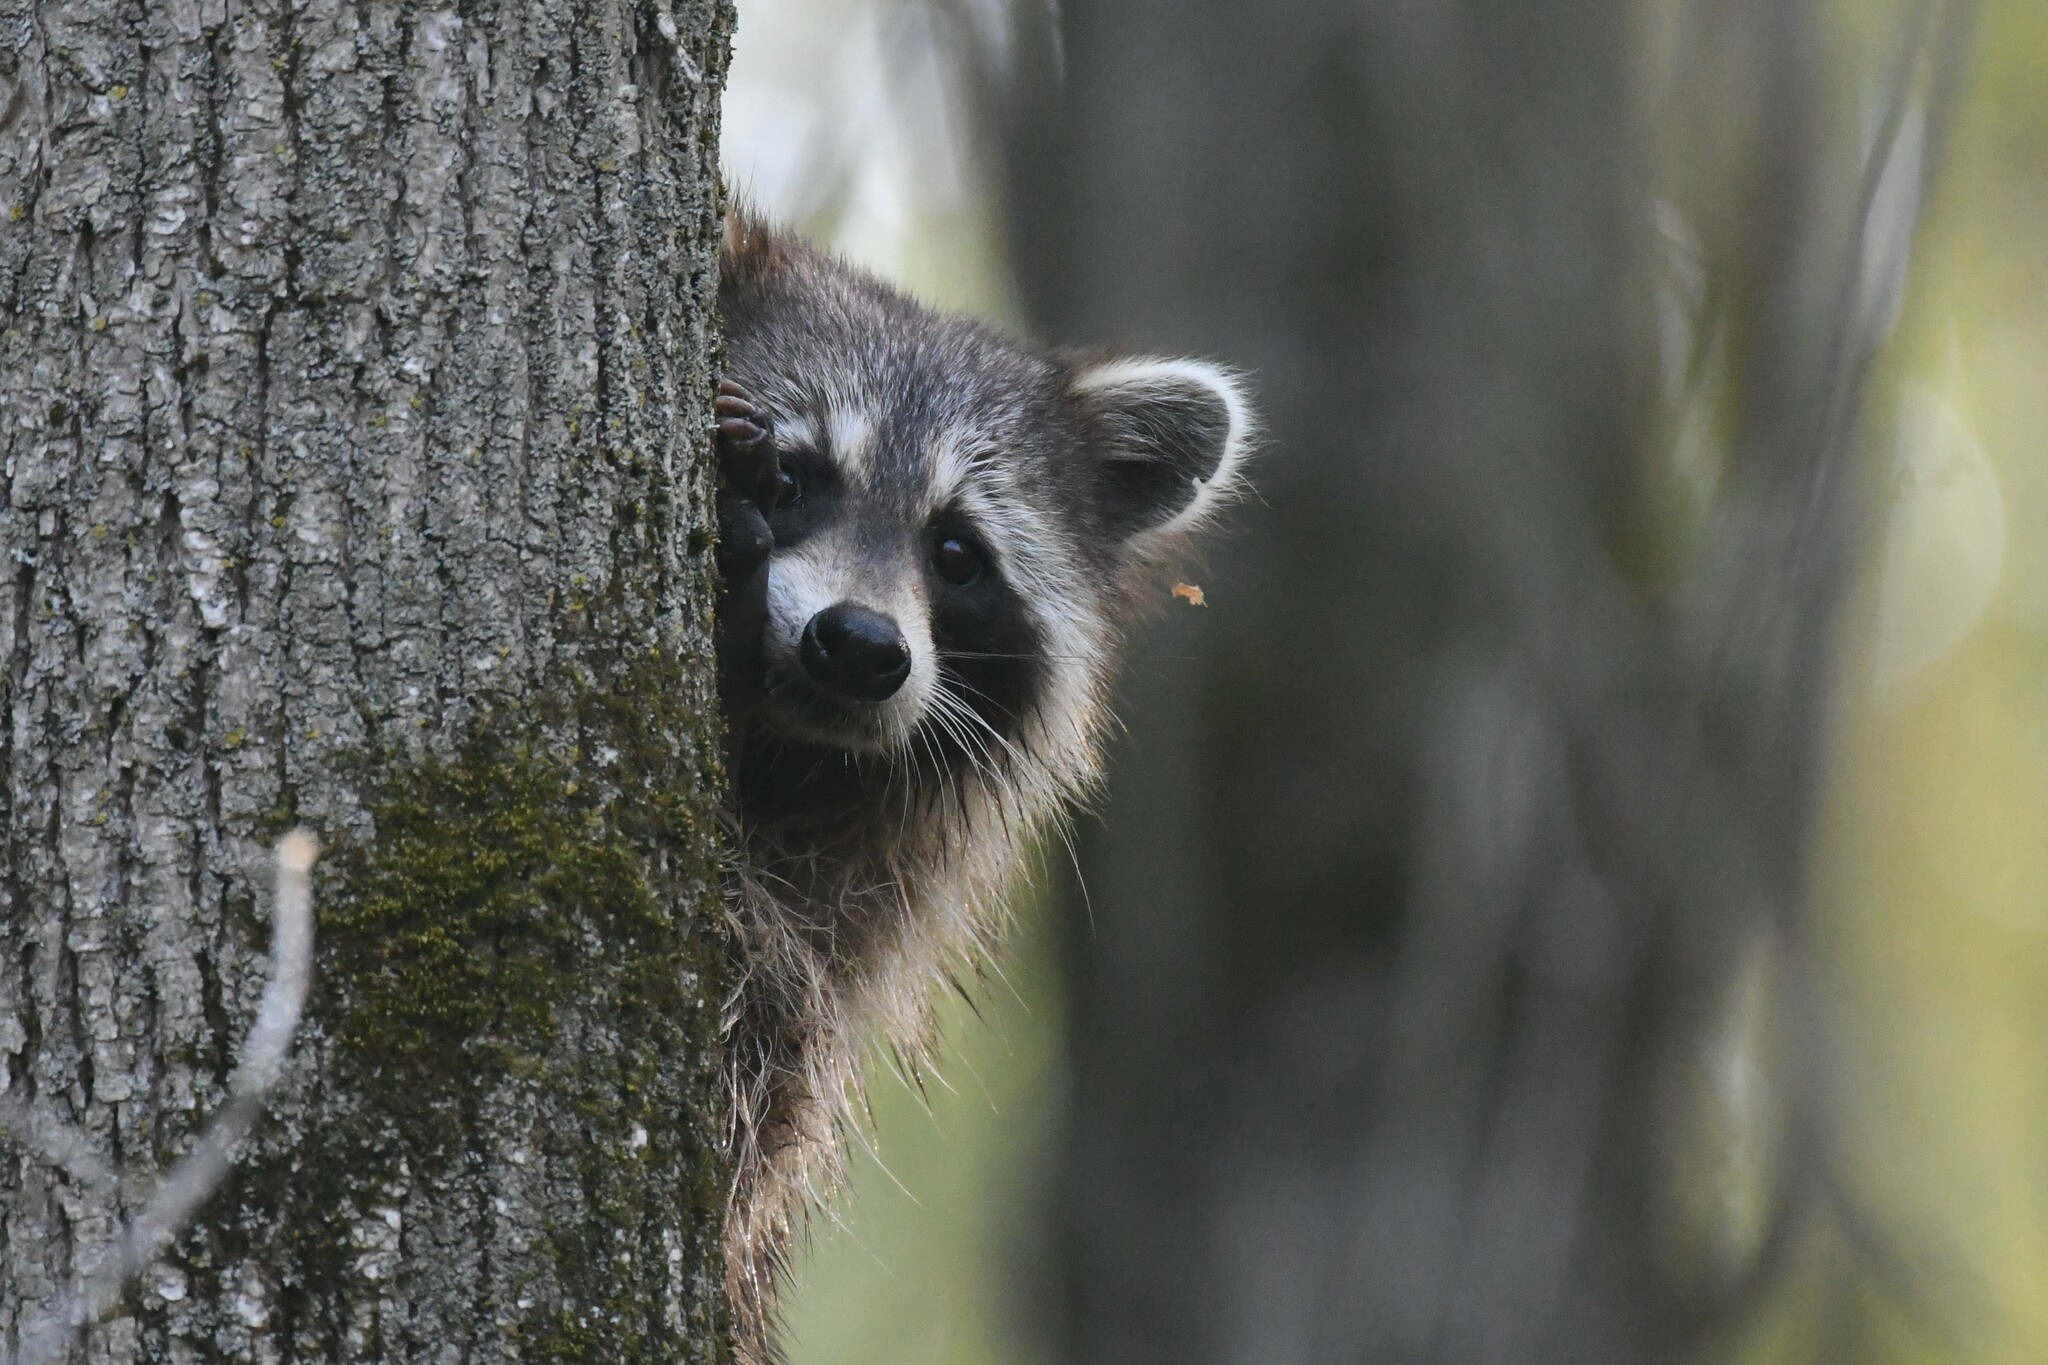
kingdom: Animalia
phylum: Chordata
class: Mammalia
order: Carnivora
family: Procyonidae
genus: Procyon
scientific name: Procyon lotor
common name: Raccoon
